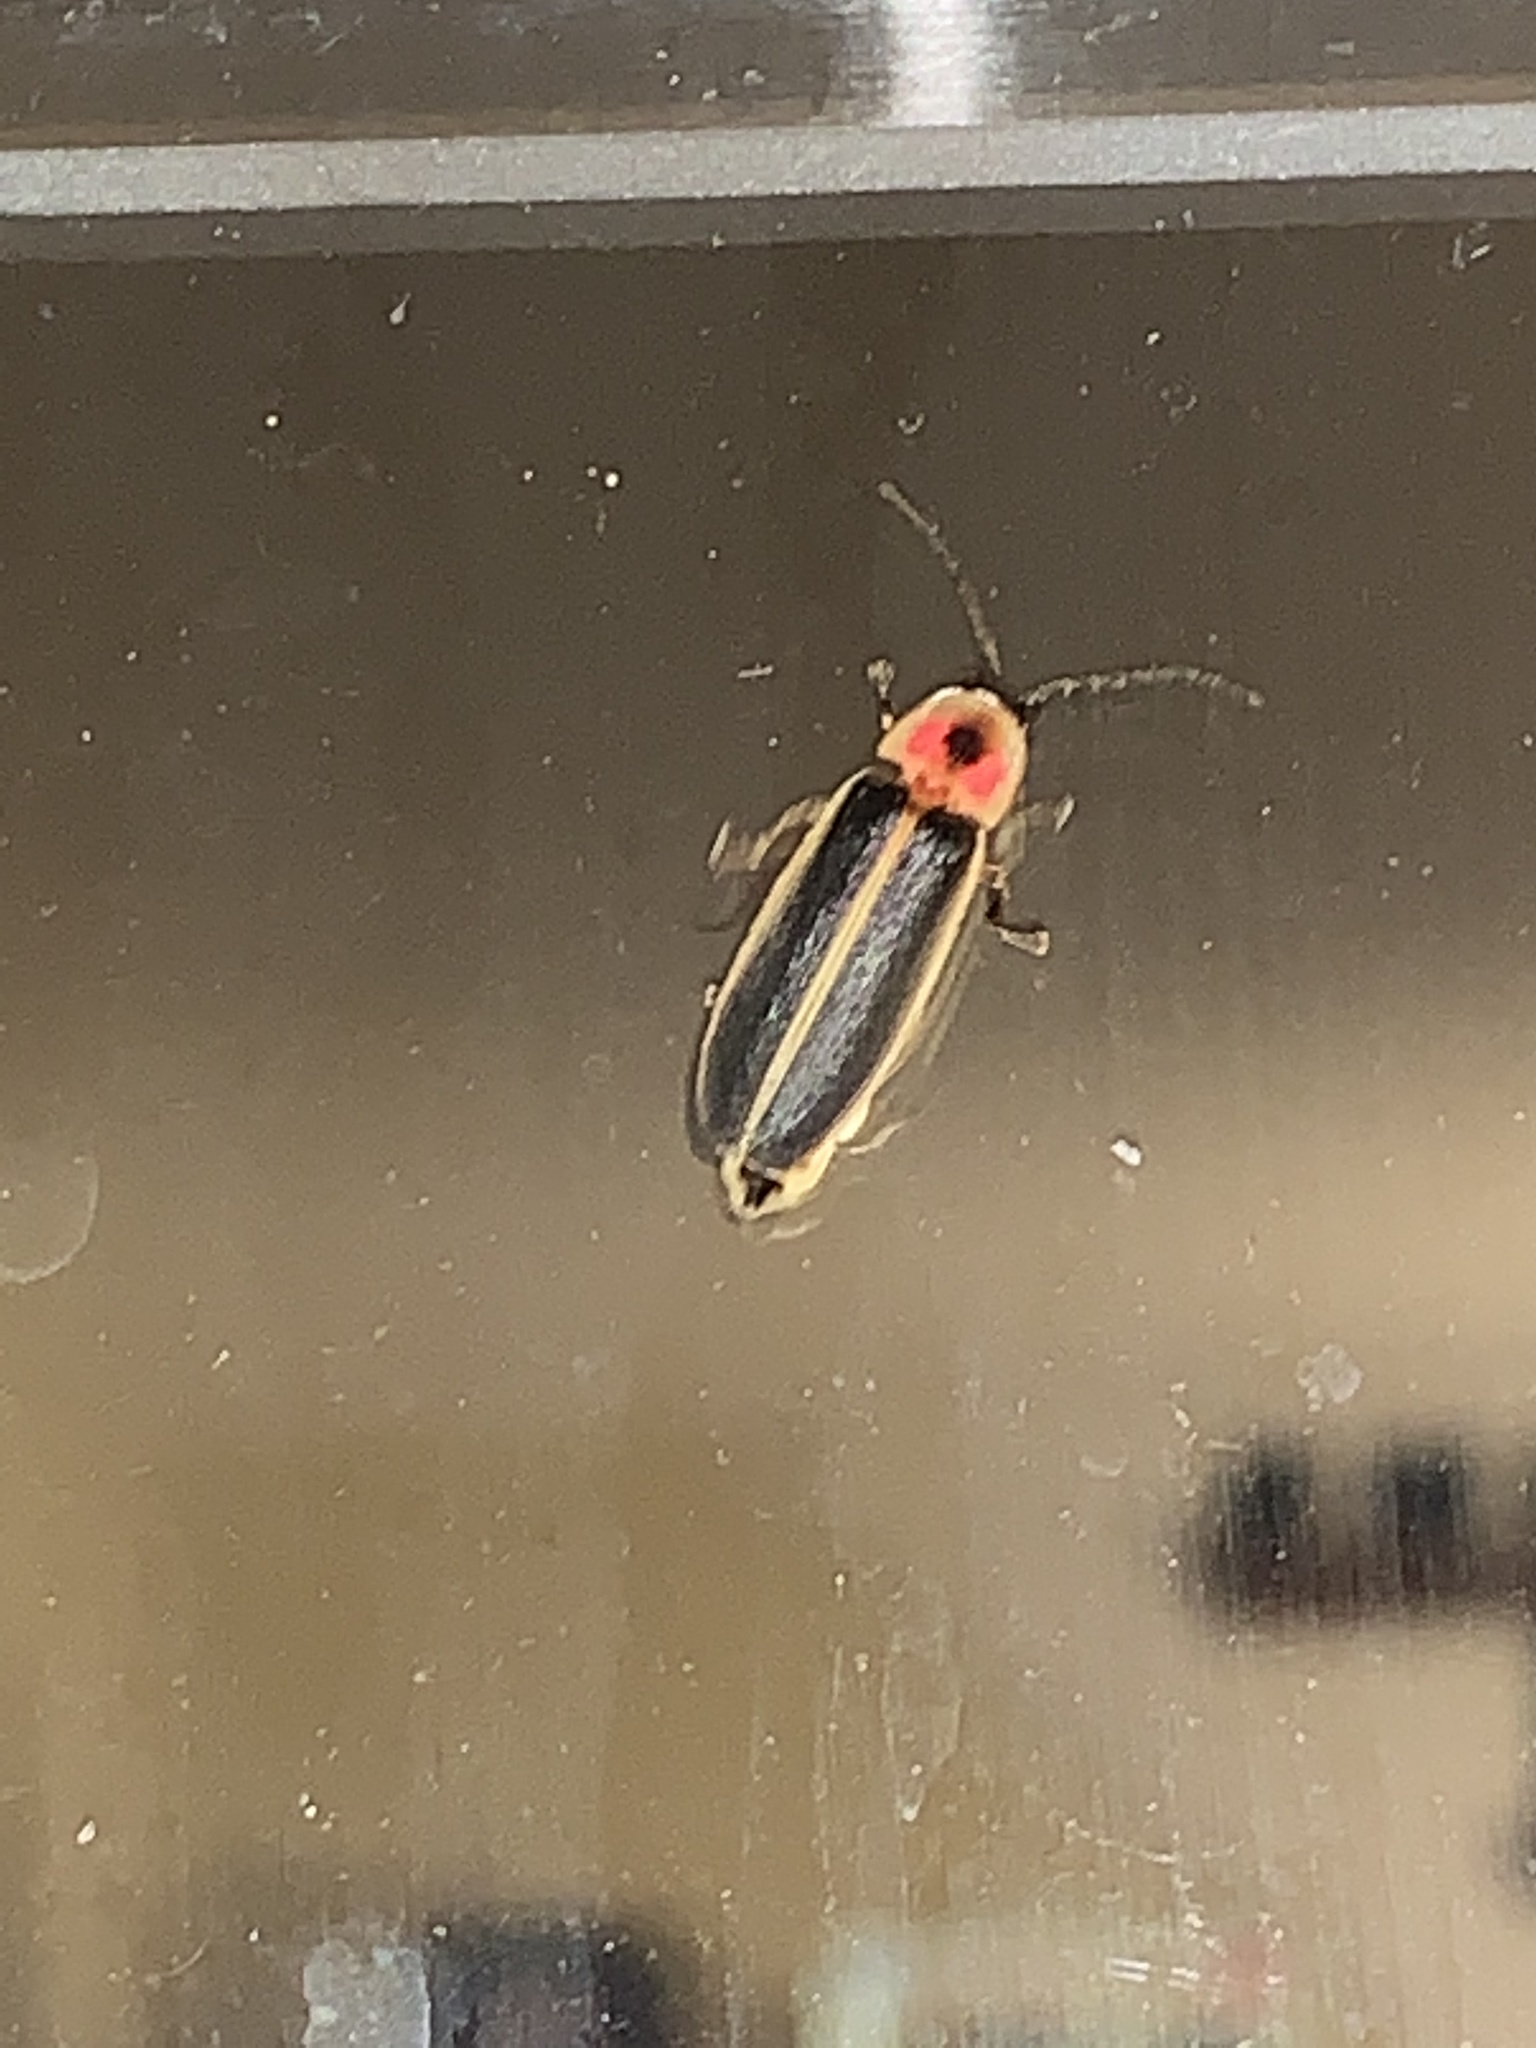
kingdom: Animalia
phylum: Arthropoda
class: Insecta
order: Coleoptera
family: Lampyridae
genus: Photinus
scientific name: Photinus pyralis
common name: Big dipper firefly
